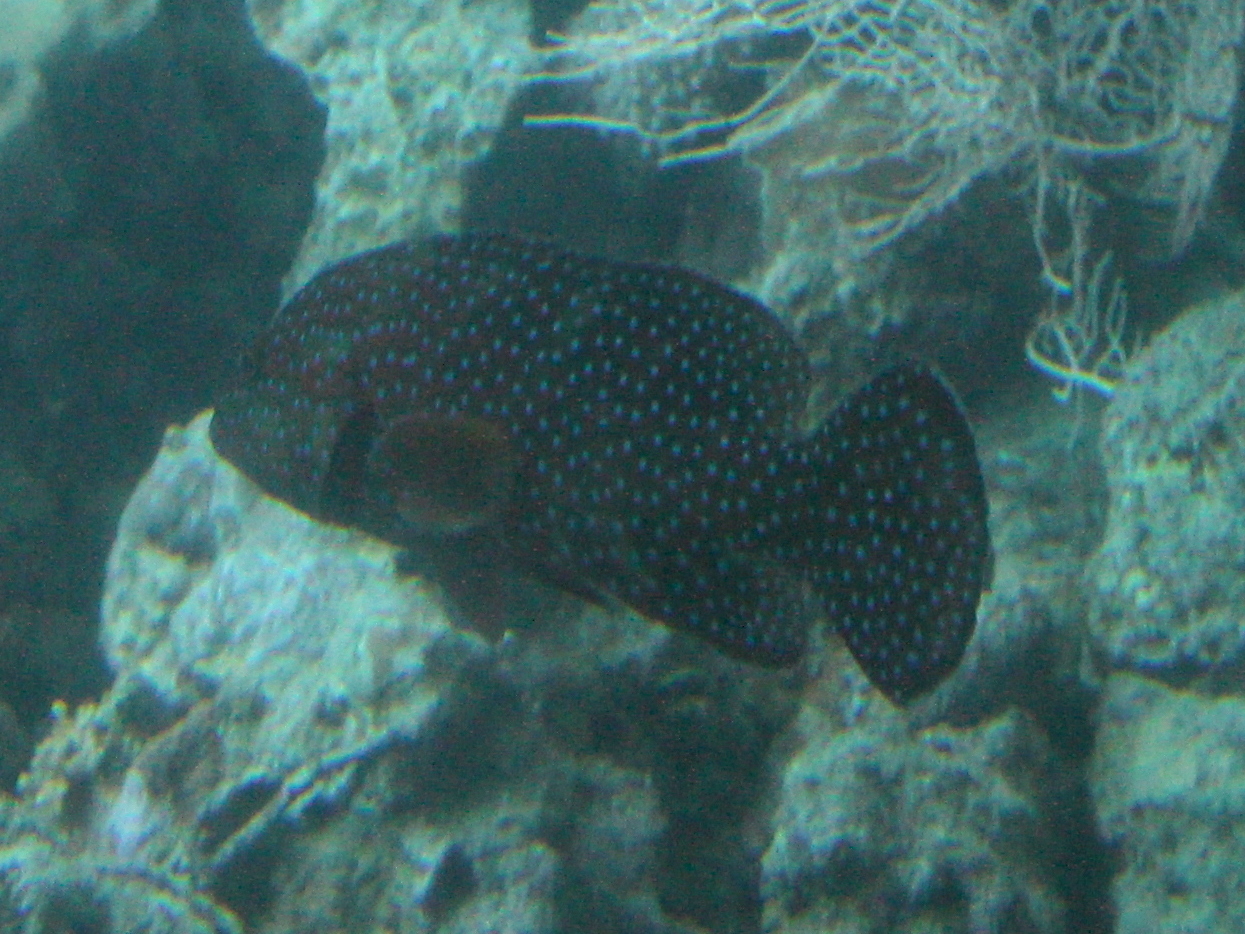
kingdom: Animalia
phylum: Chordata
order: Perciformes
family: Serranidae
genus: Cephalopholis
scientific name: Cephalopholis miniata
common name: Coral hind
